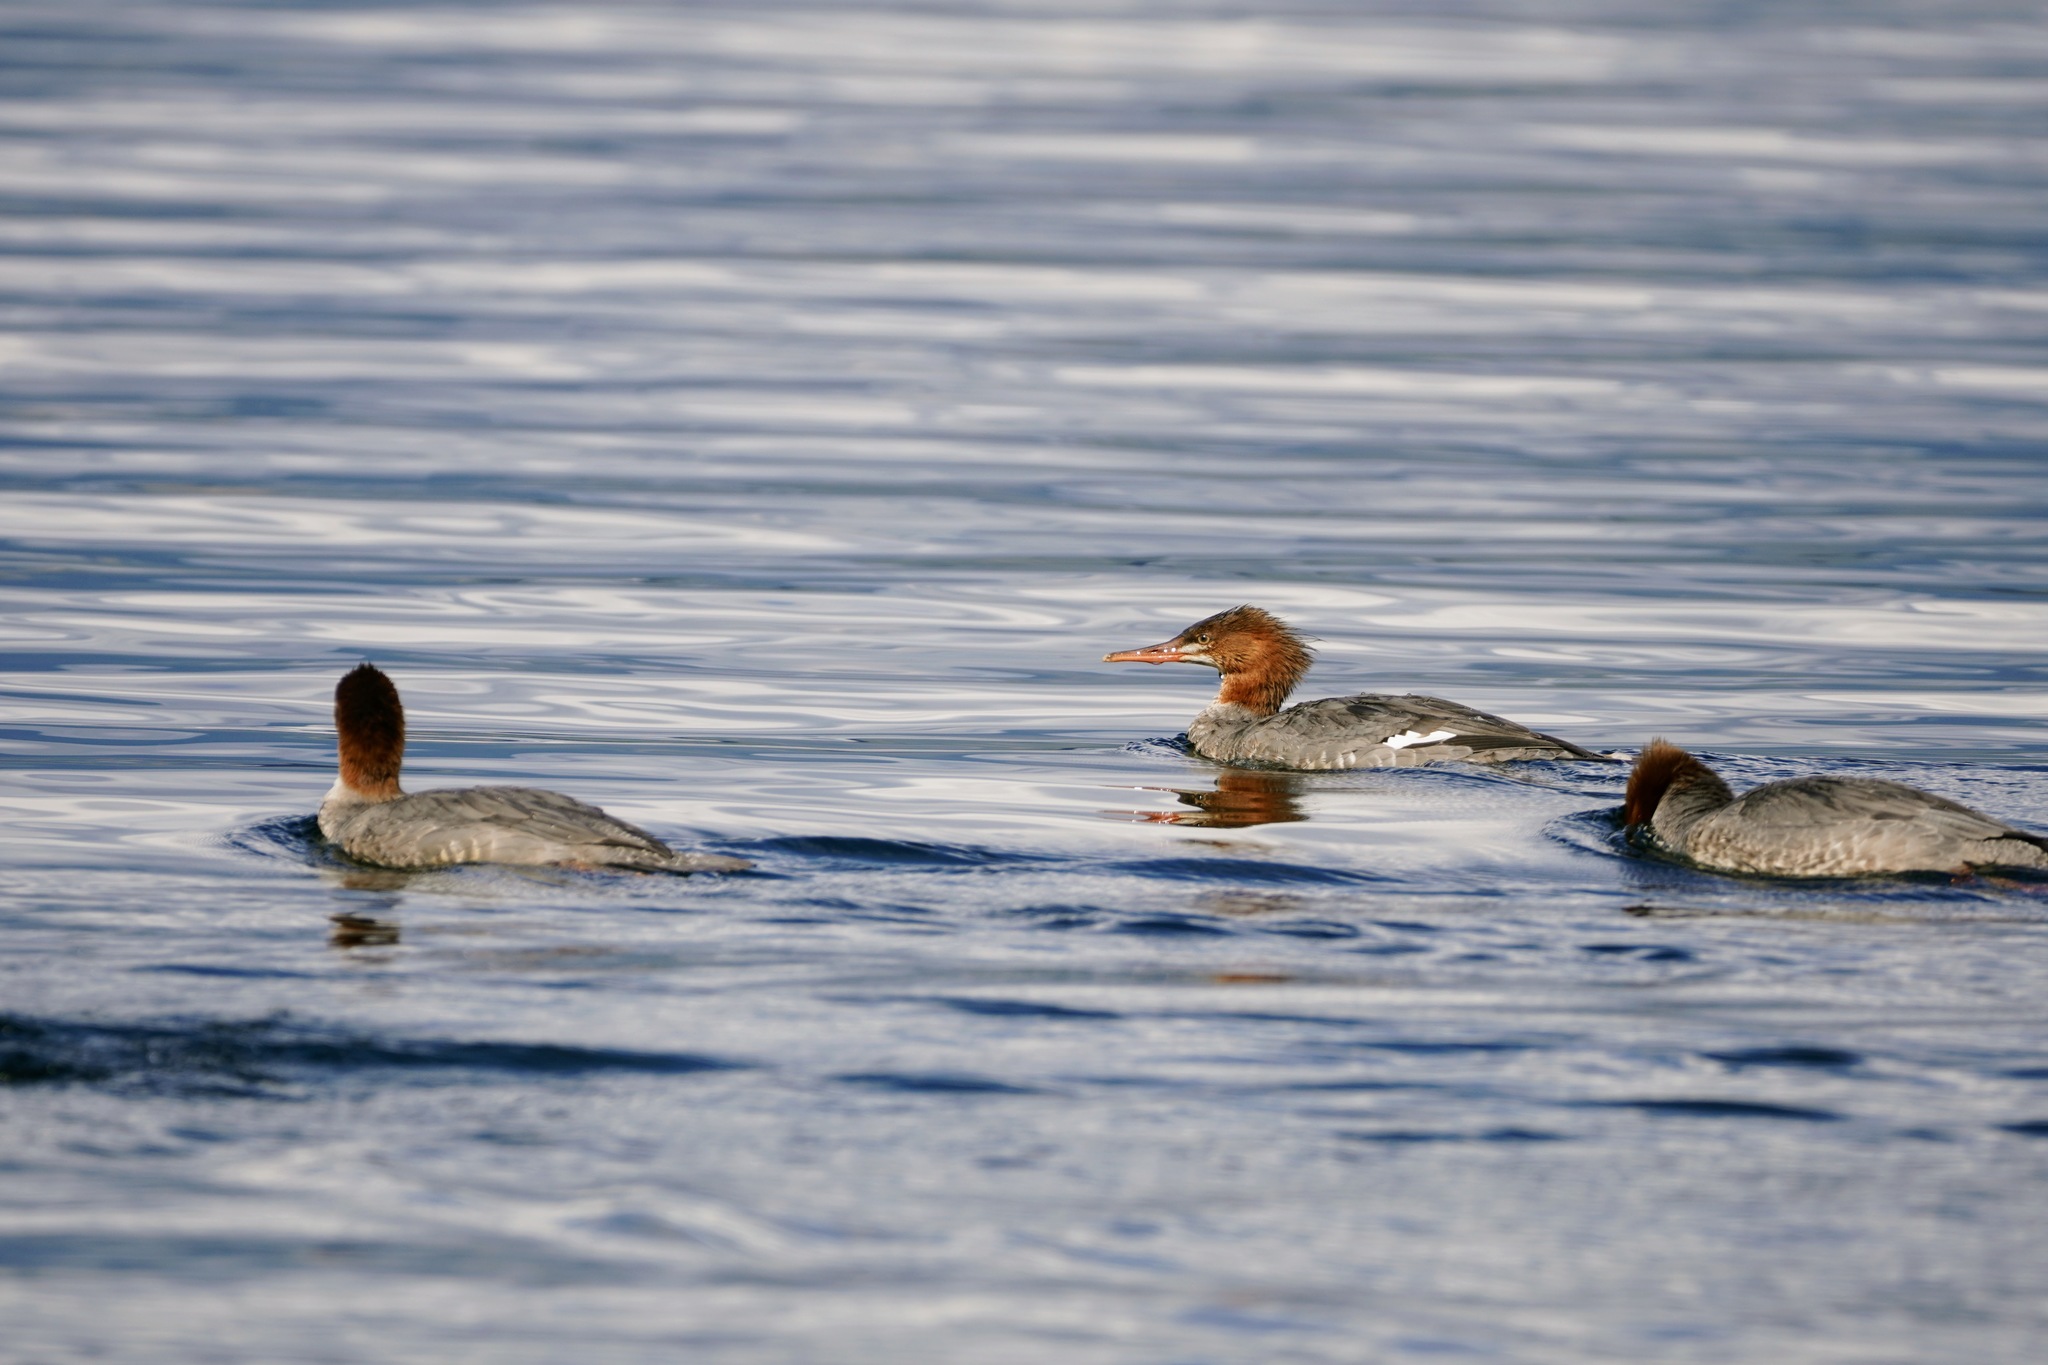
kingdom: Animalia
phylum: Chordata
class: Aves
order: Anseriformes
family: Anatidae
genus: Mergus
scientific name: Mergus merganser
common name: Common merganser
